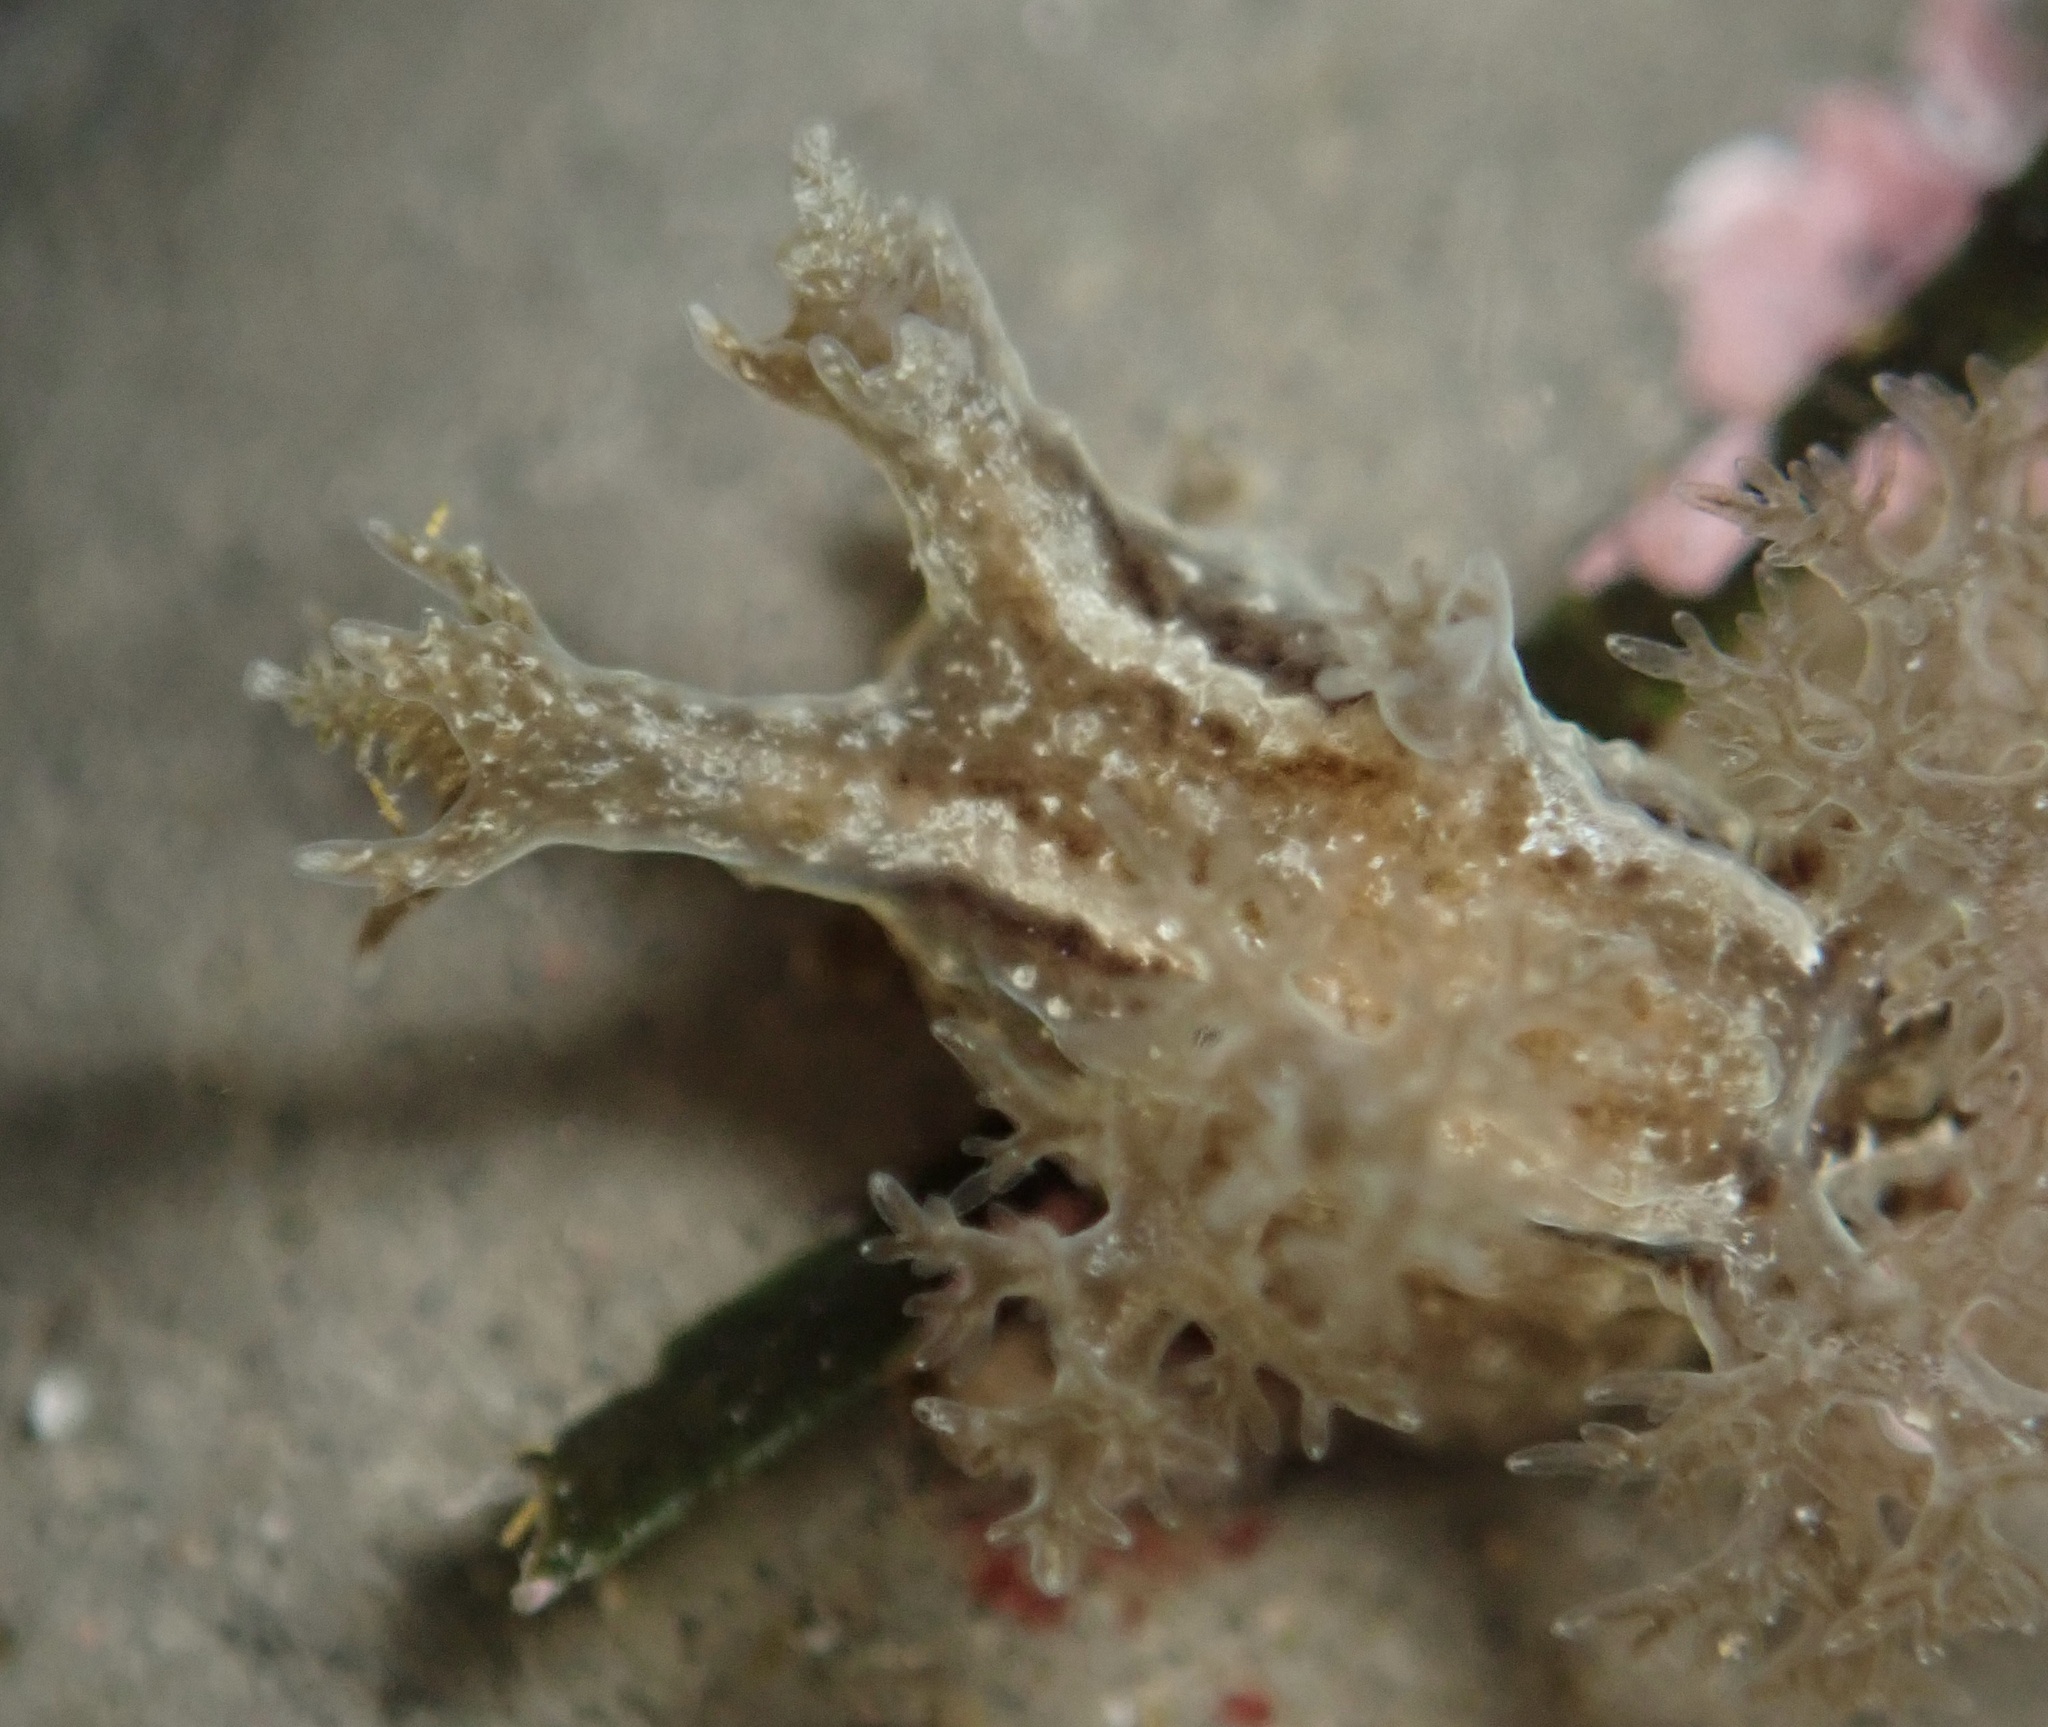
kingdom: Animalia
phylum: Mollusca
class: Gastropoda
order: Nudibranchia
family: Dendronotidae
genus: Dendronotus
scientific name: Dendronotus subramosus
